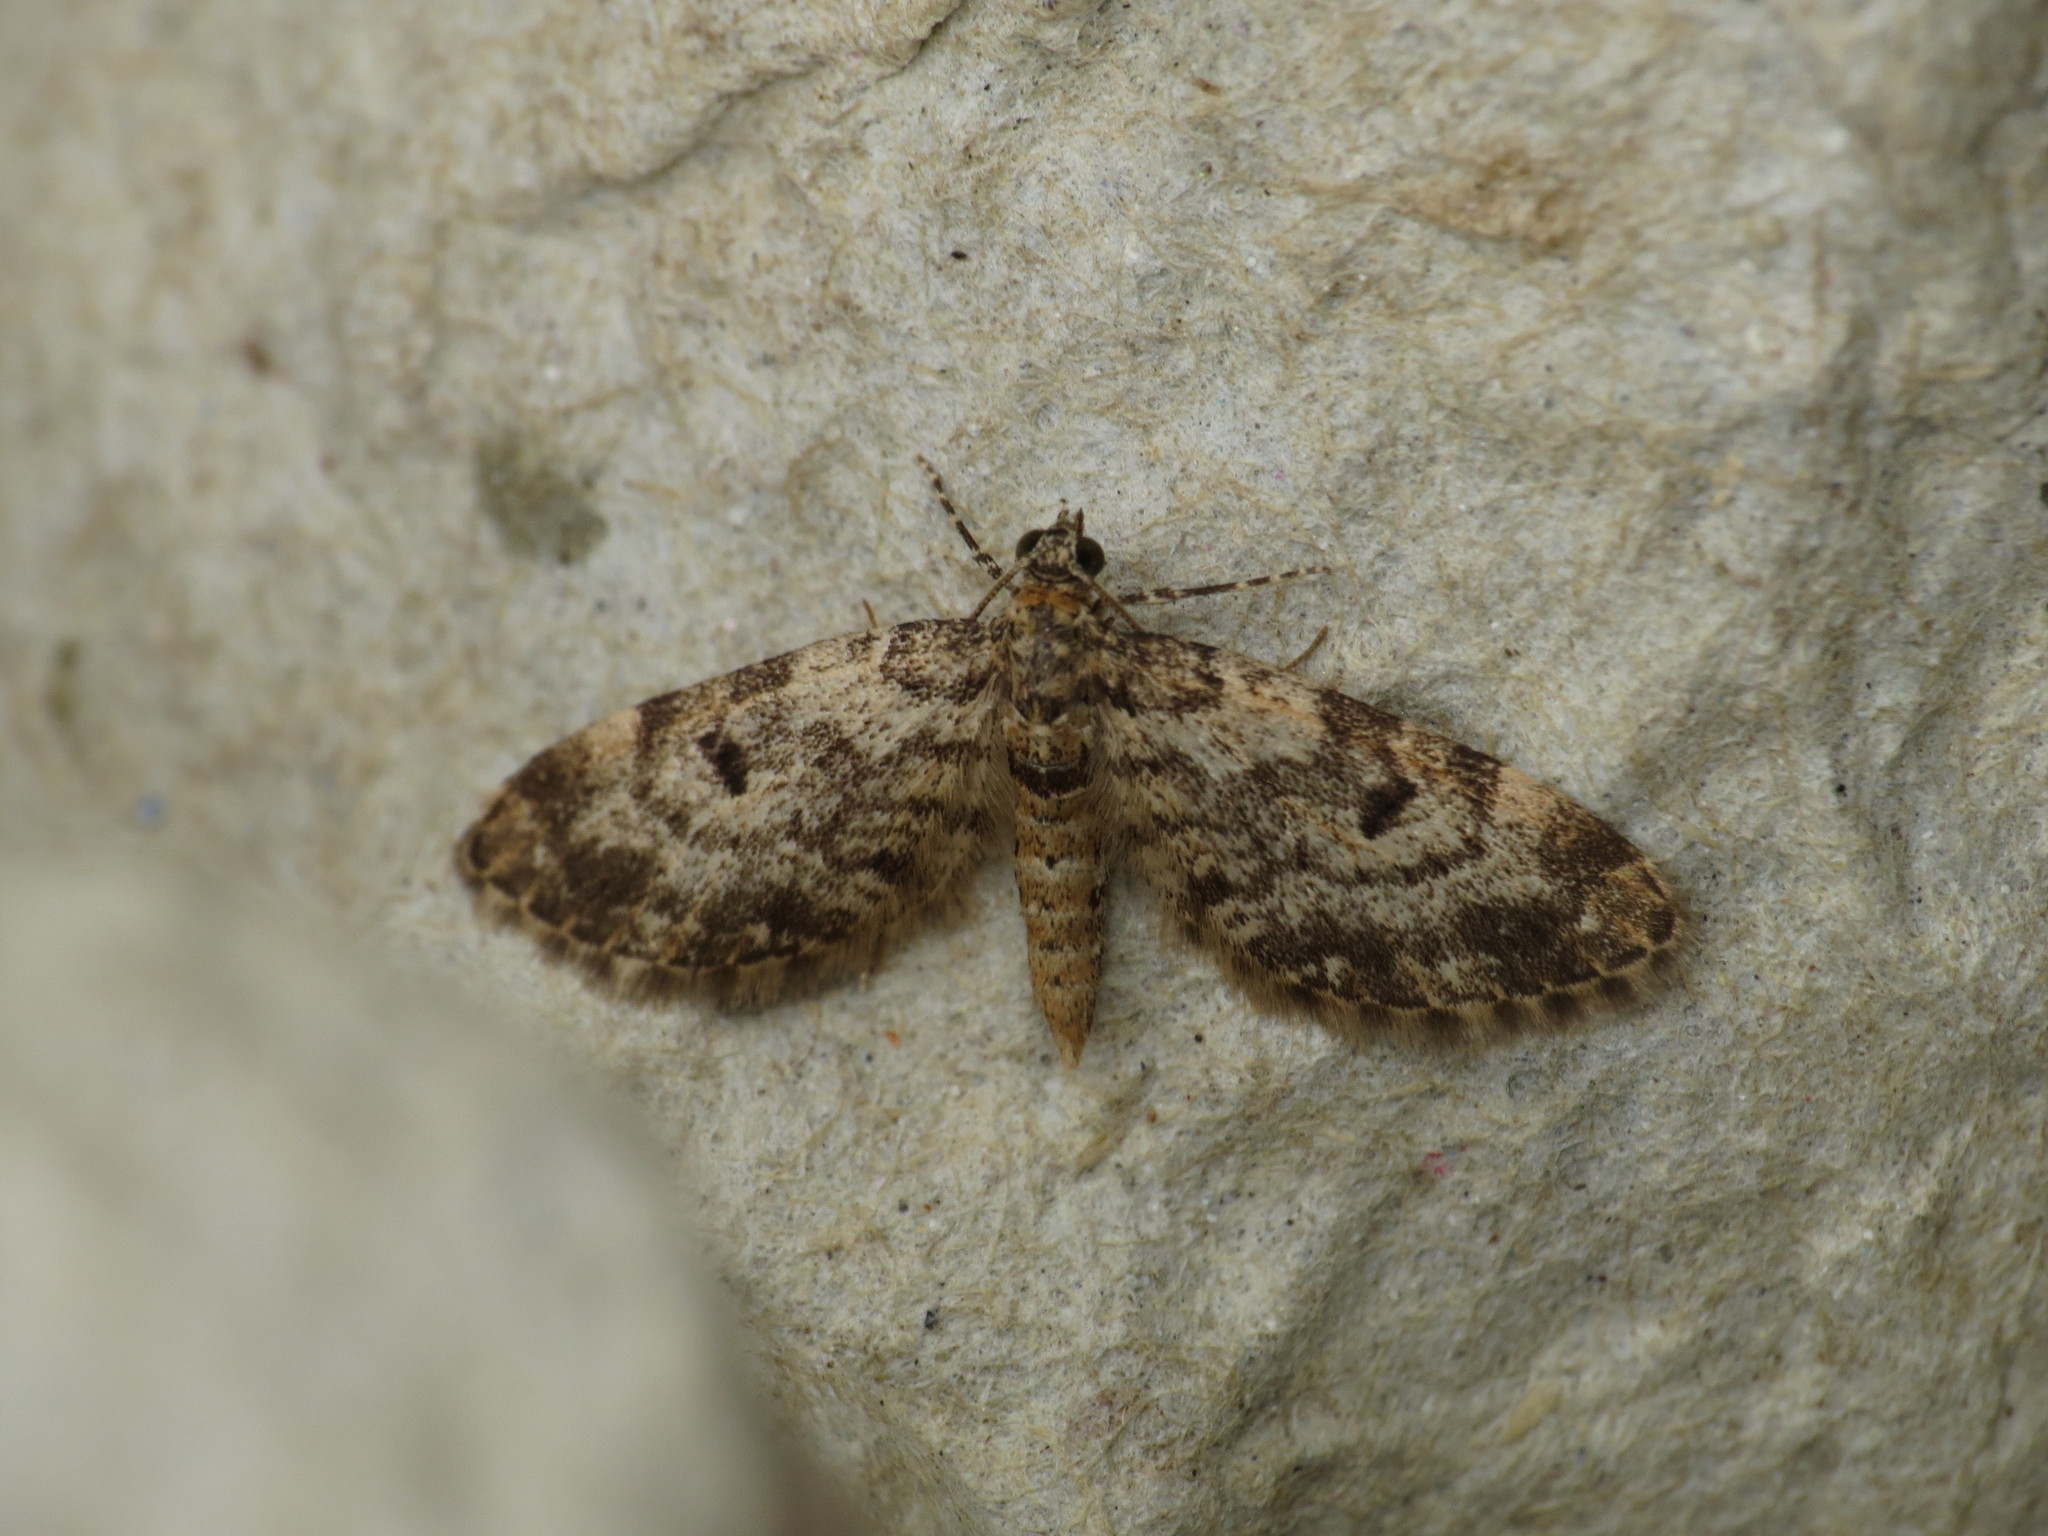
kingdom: Animalia
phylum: Arthropoda
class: Insecta
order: Lepidoptera
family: Geometridae
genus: Eupithecia
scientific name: Eupithecia tantillaria
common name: Dwarf pug
